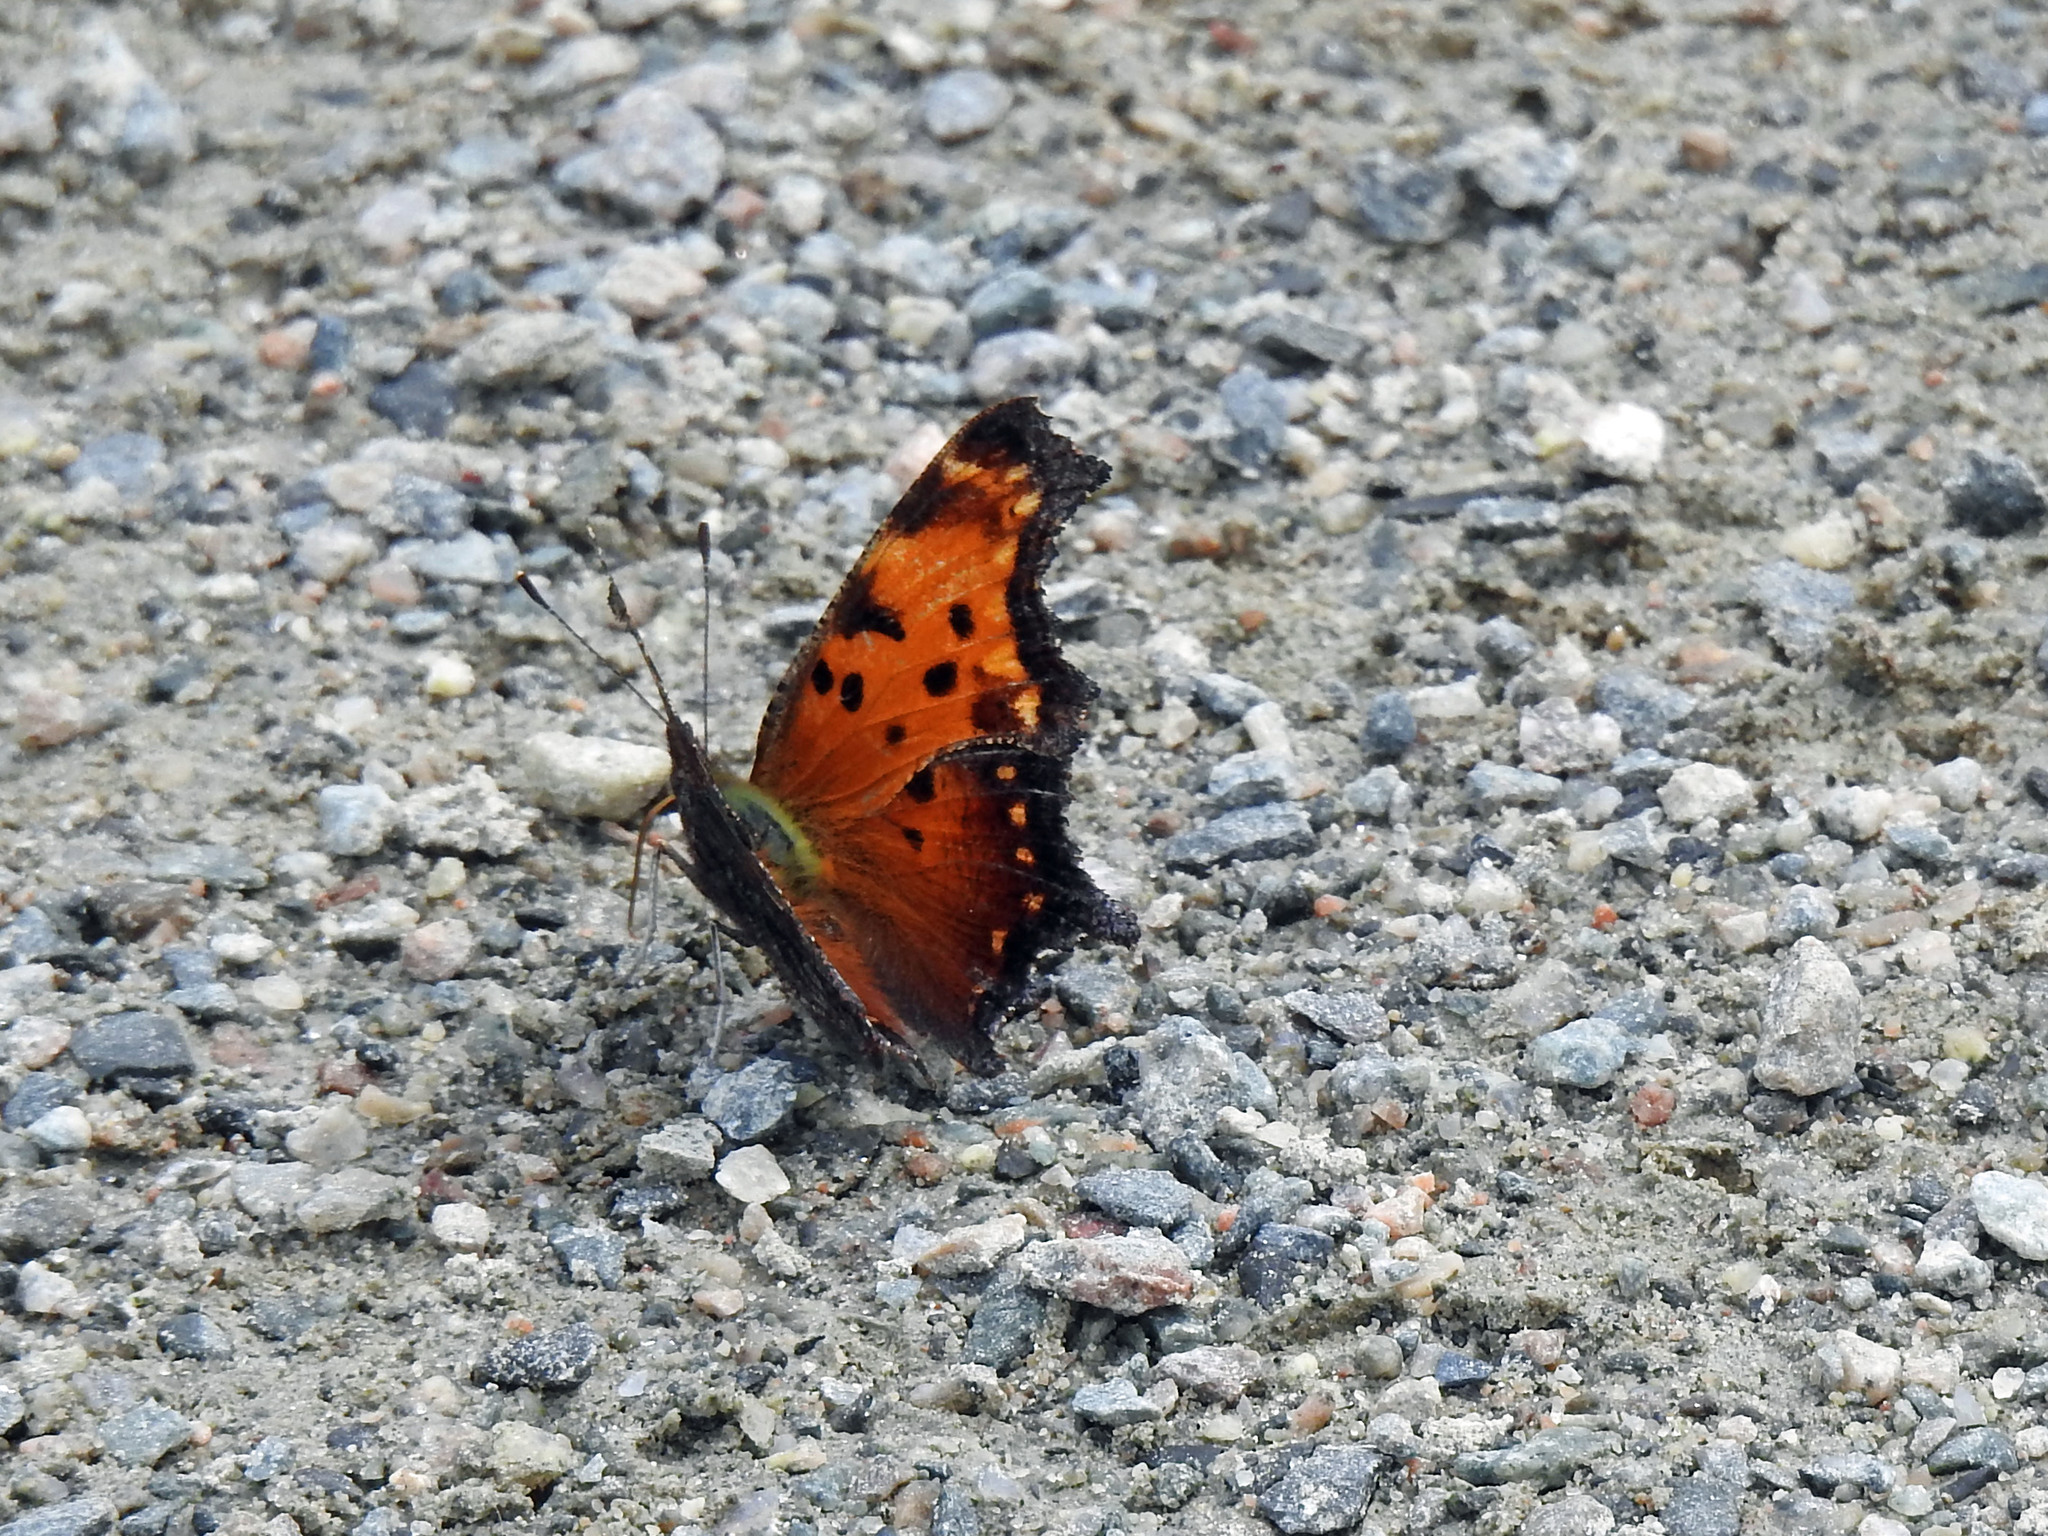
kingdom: Animalia
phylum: Arthropoda
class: Insecta
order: Lepidoptera
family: Nymphalidae
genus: Polygonia
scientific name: Polygonia progne
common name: Gray comma
